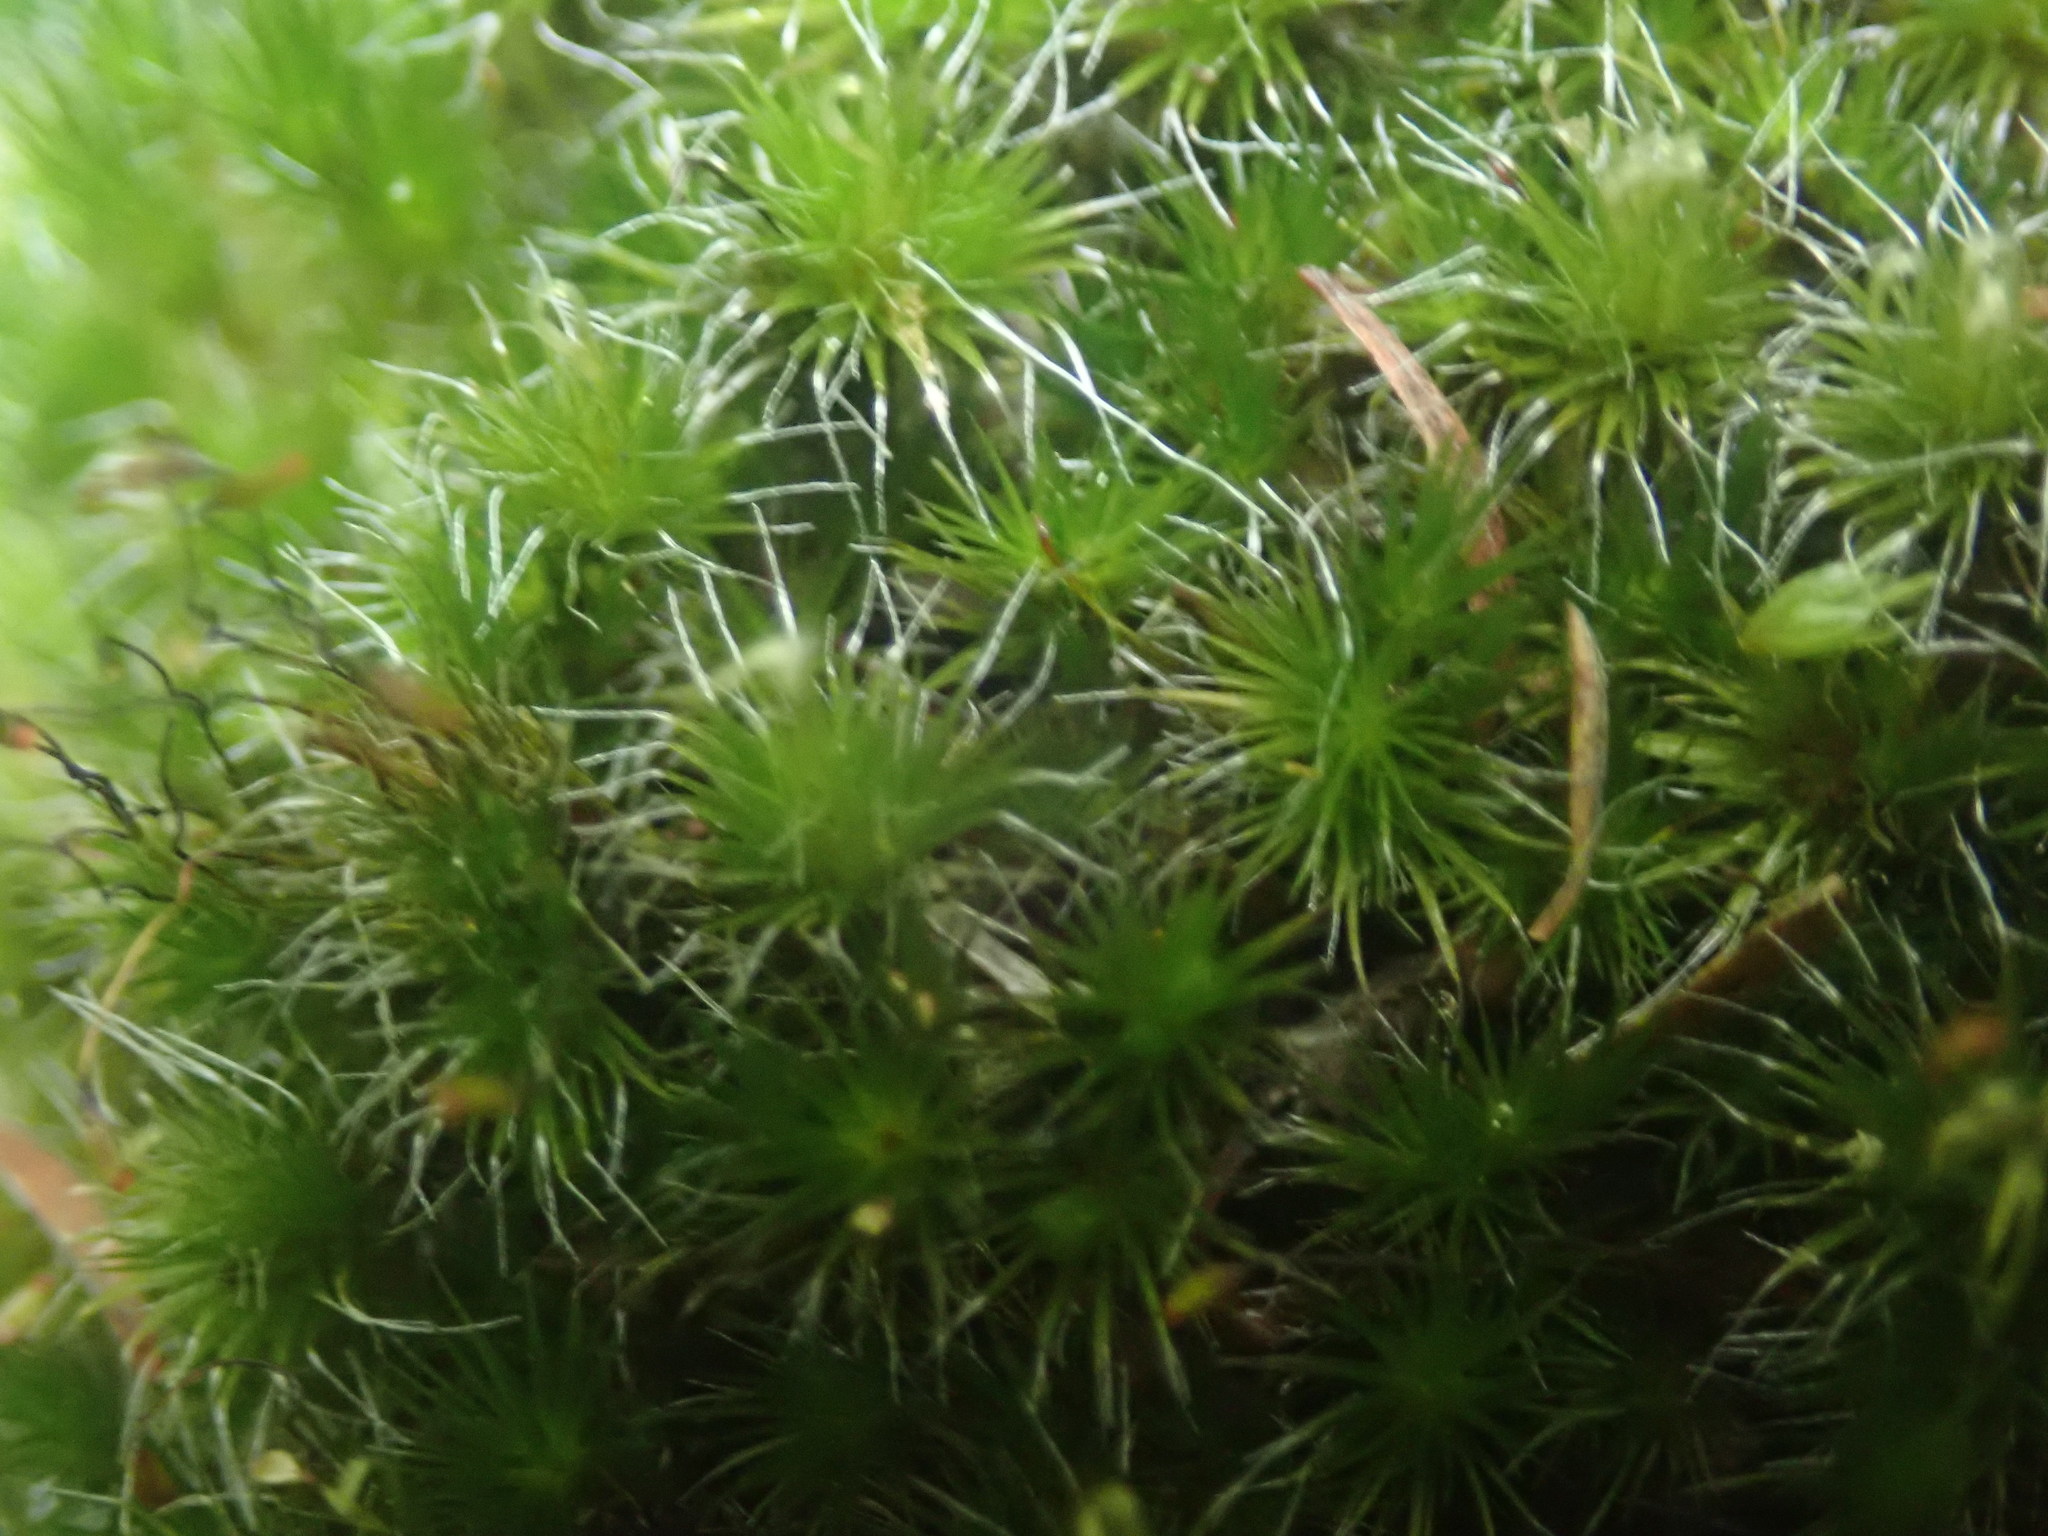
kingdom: Plantae
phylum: Bryophyta
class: Bryopsida
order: Dicranales
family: Leucobryaceae
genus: Campylopus
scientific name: Campylopus introflexus
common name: Heath star moss
